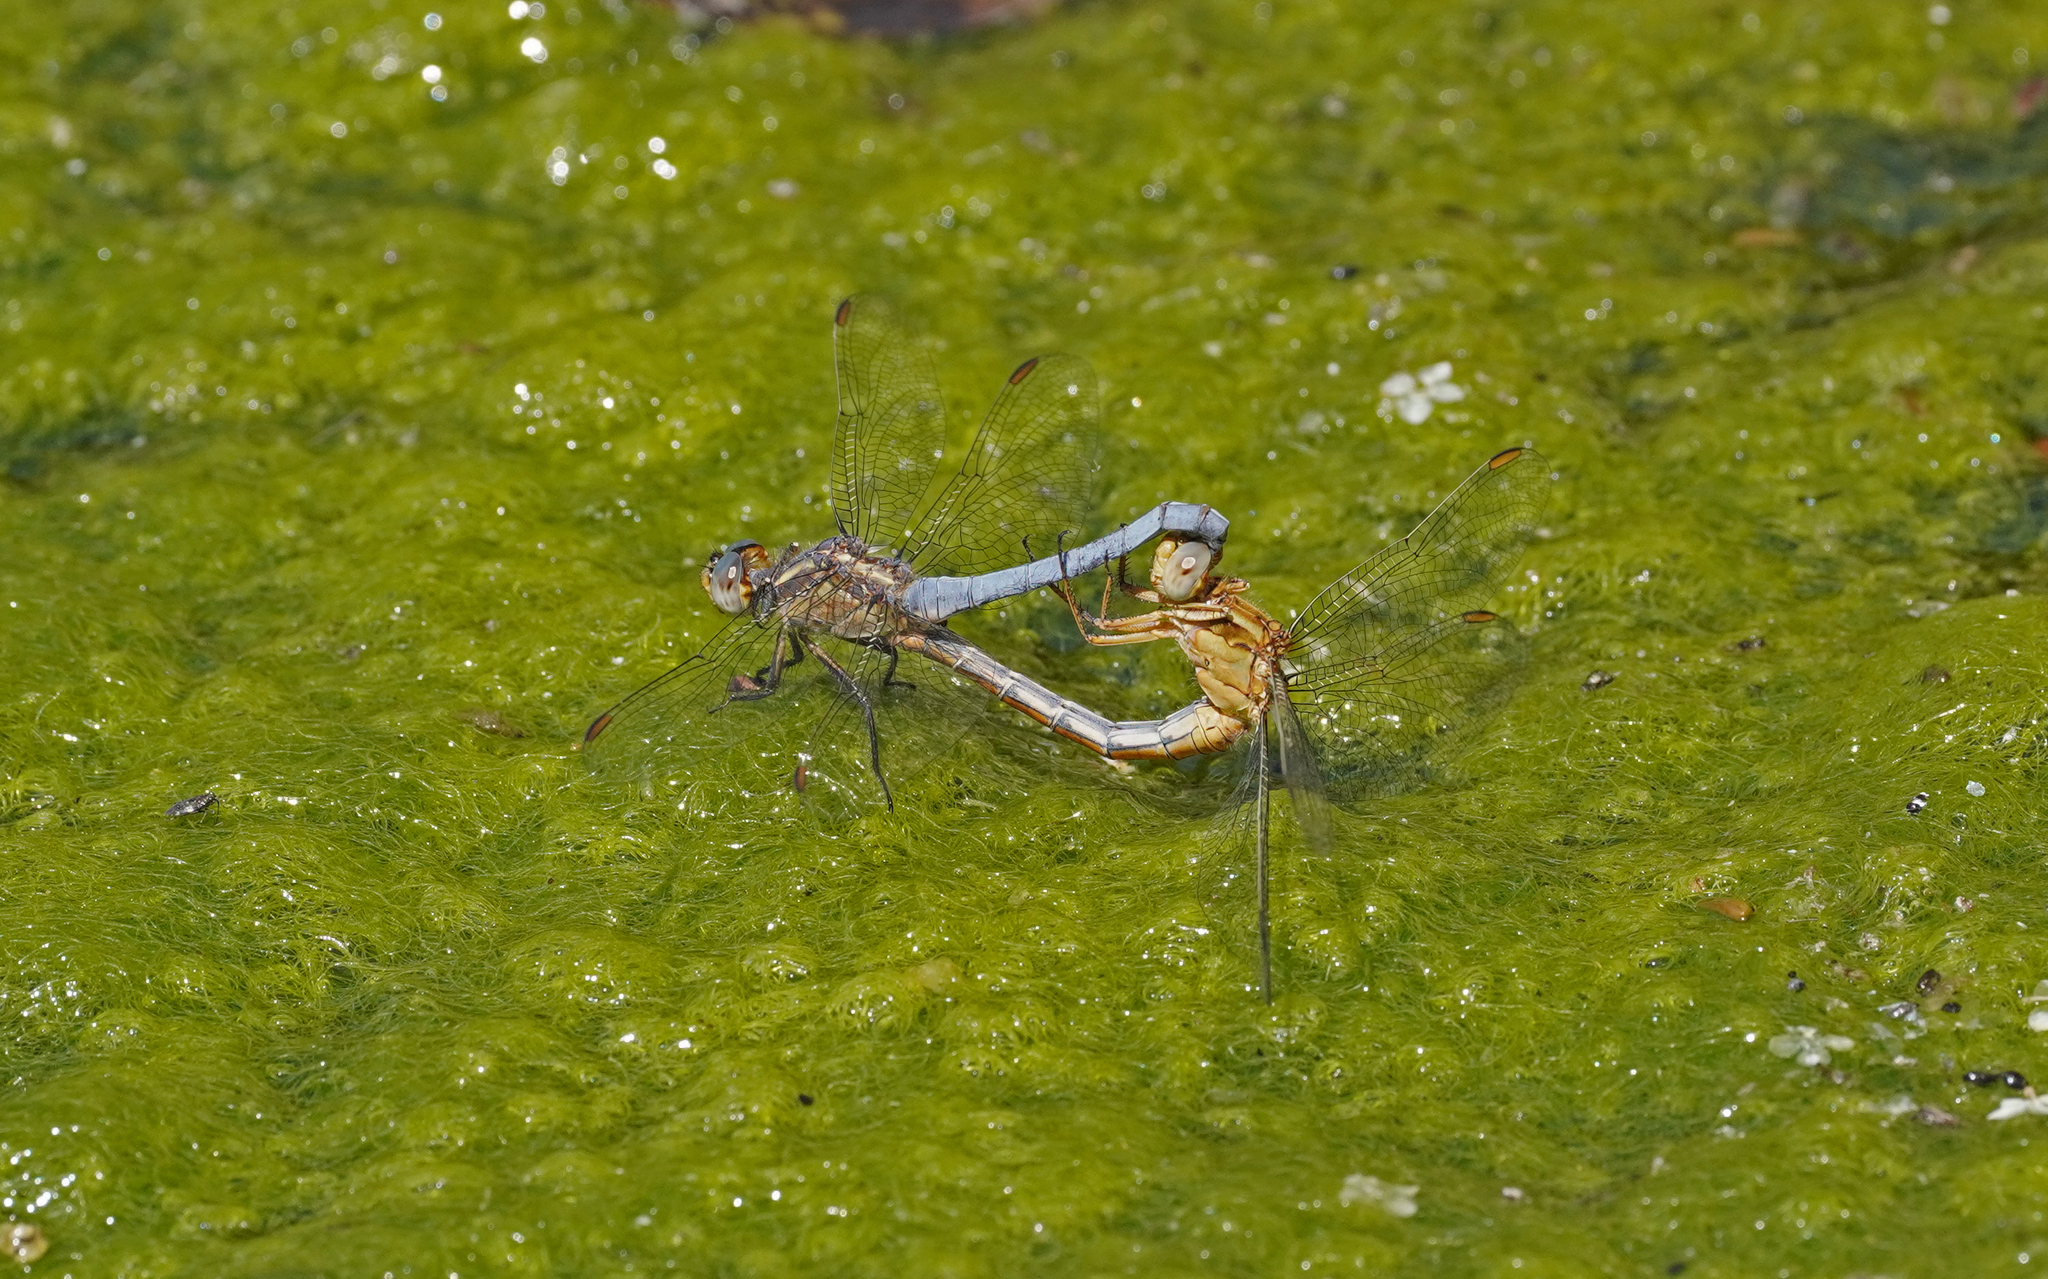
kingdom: Animalia
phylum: Arthropoda
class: Insecta
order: Odonata
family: Libellulidae
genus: Orthetrum
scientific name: Orthetrum coerulescens
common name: Keeled skimmer
